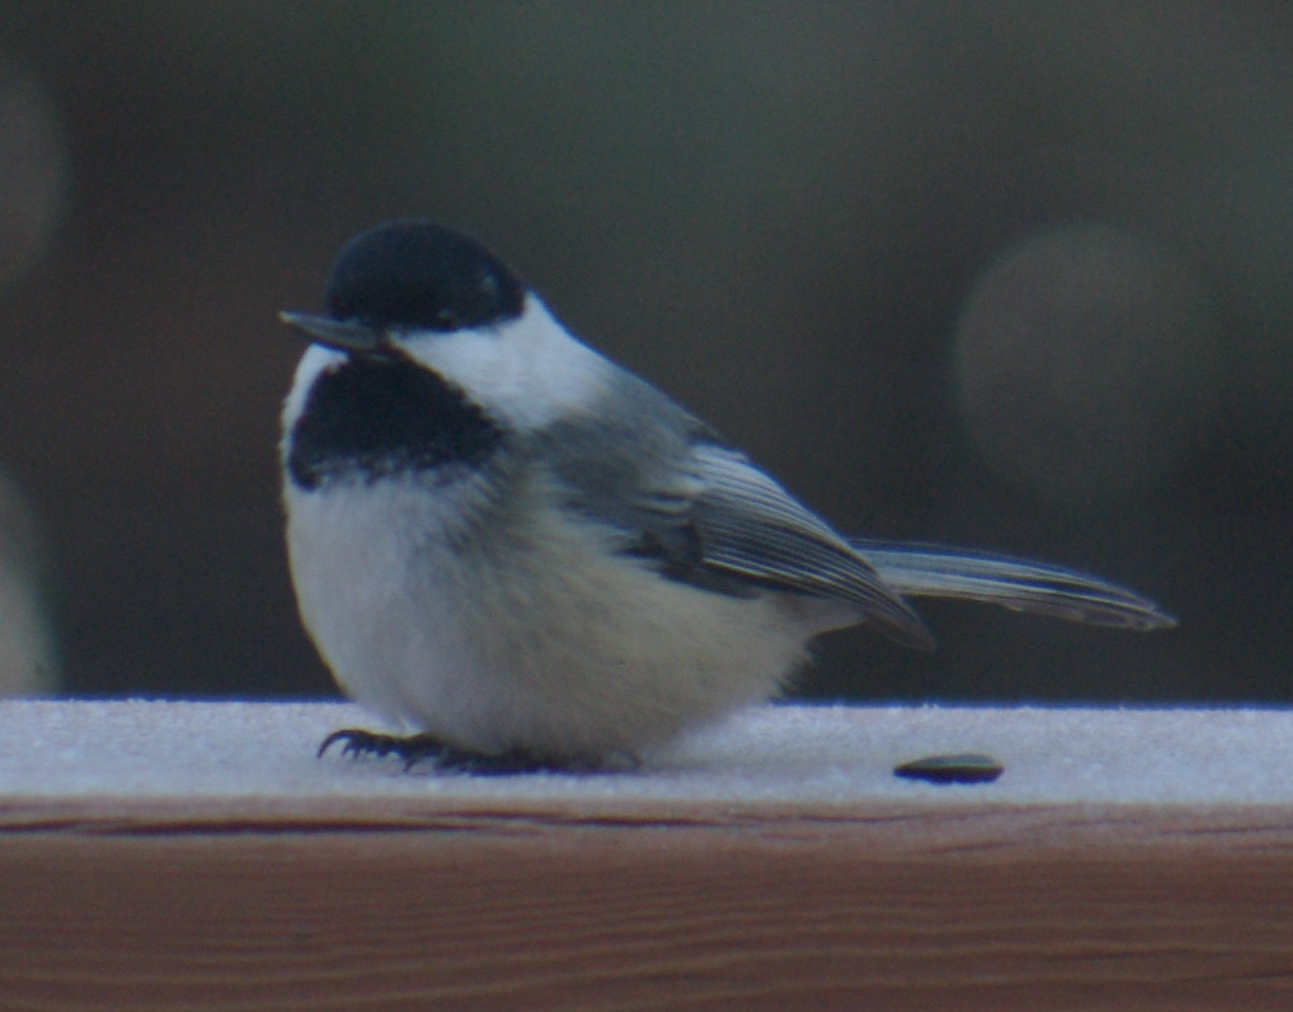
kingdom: Animalia
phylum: Chordata
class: Aves
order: Passeriformes
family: Paridae
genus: Poecile
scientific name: Poecile atricapillus
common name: Black-capped chickadee
